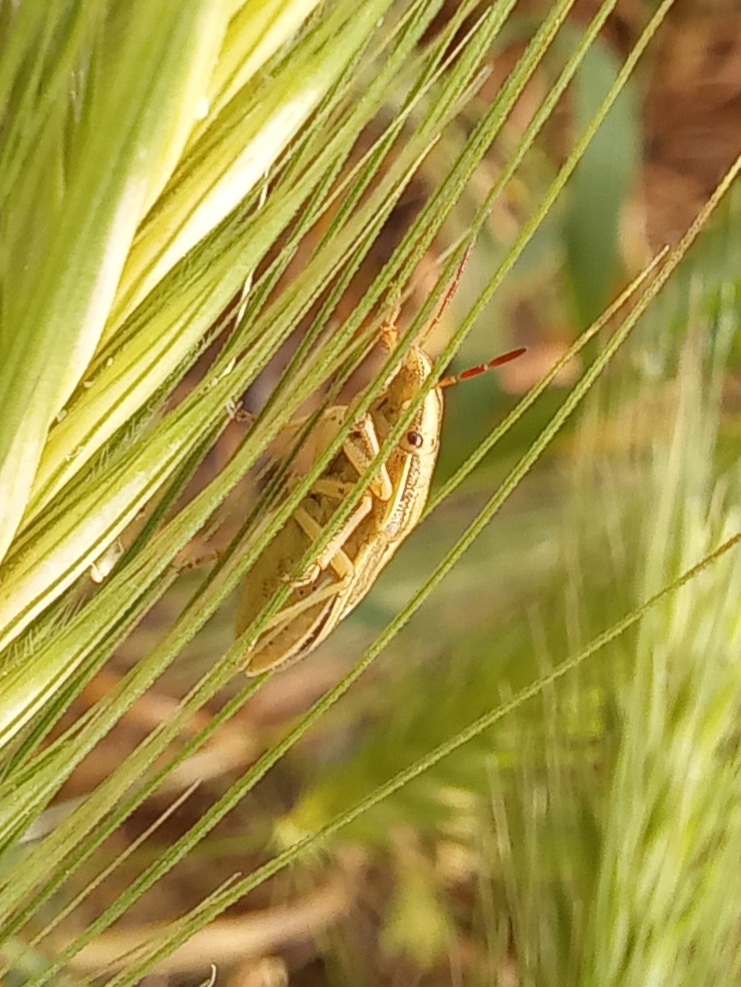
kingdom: Animalia
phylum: Arthropoda
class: Insecta
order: Hemiptera
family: Pentatomidae
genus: Aelia
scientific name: Aelia acuminata
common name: Bishop's mitre
